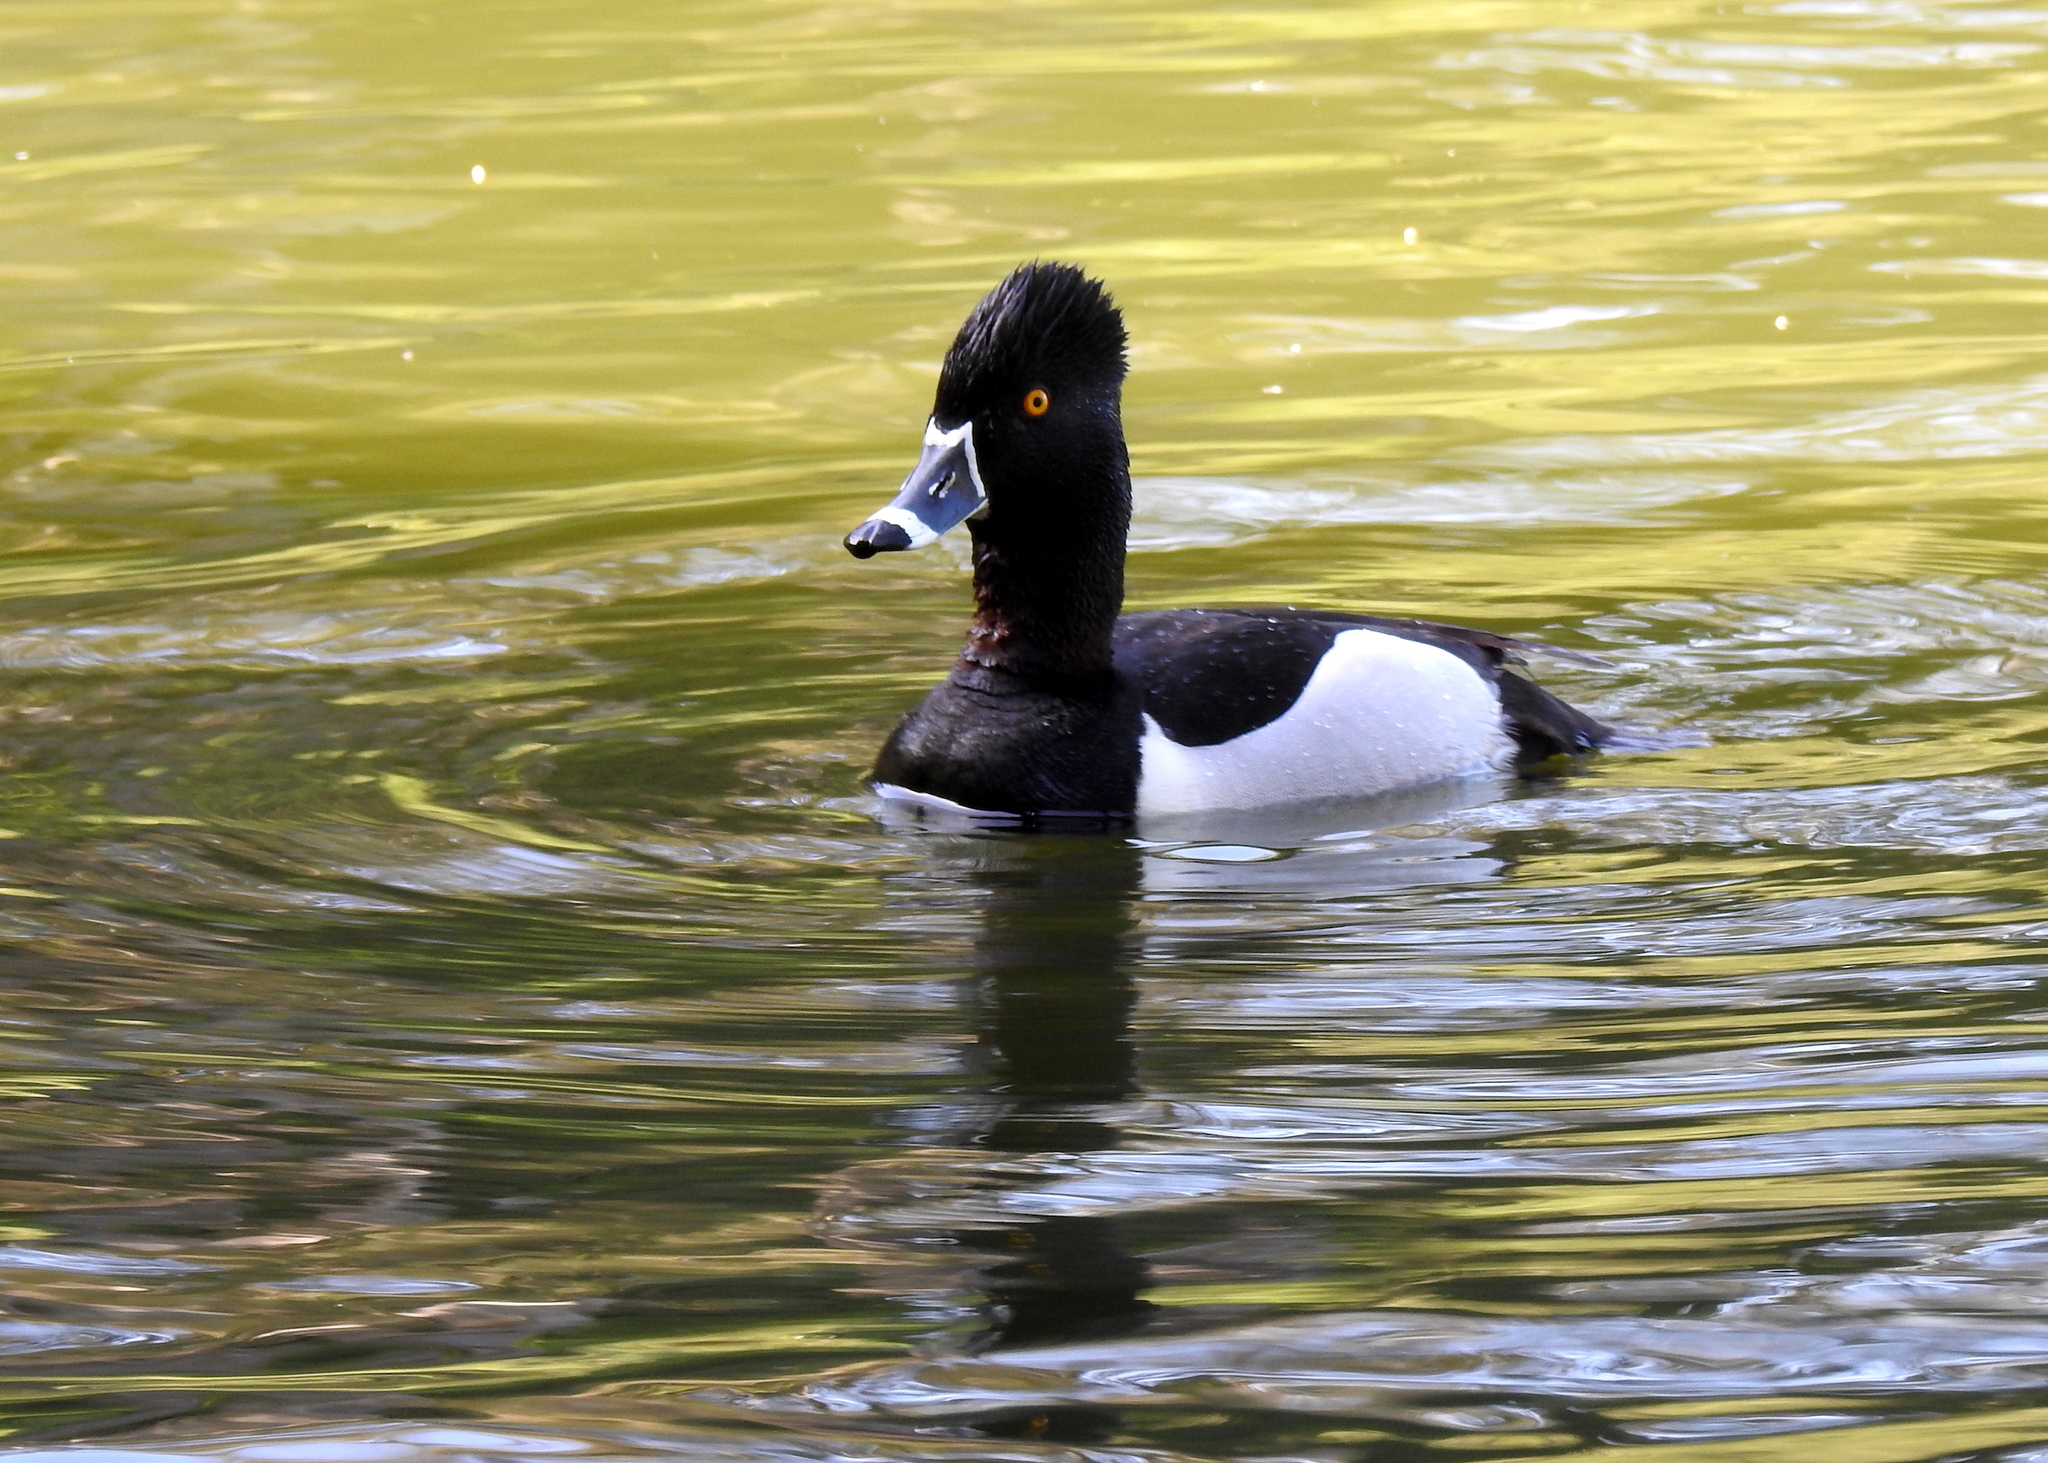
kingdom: Animalia
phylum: Chordata
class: Aves
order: Anseriformes
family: Anatidae
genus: Aythya
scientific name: Aythya collaris
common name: Ring-necked duck
